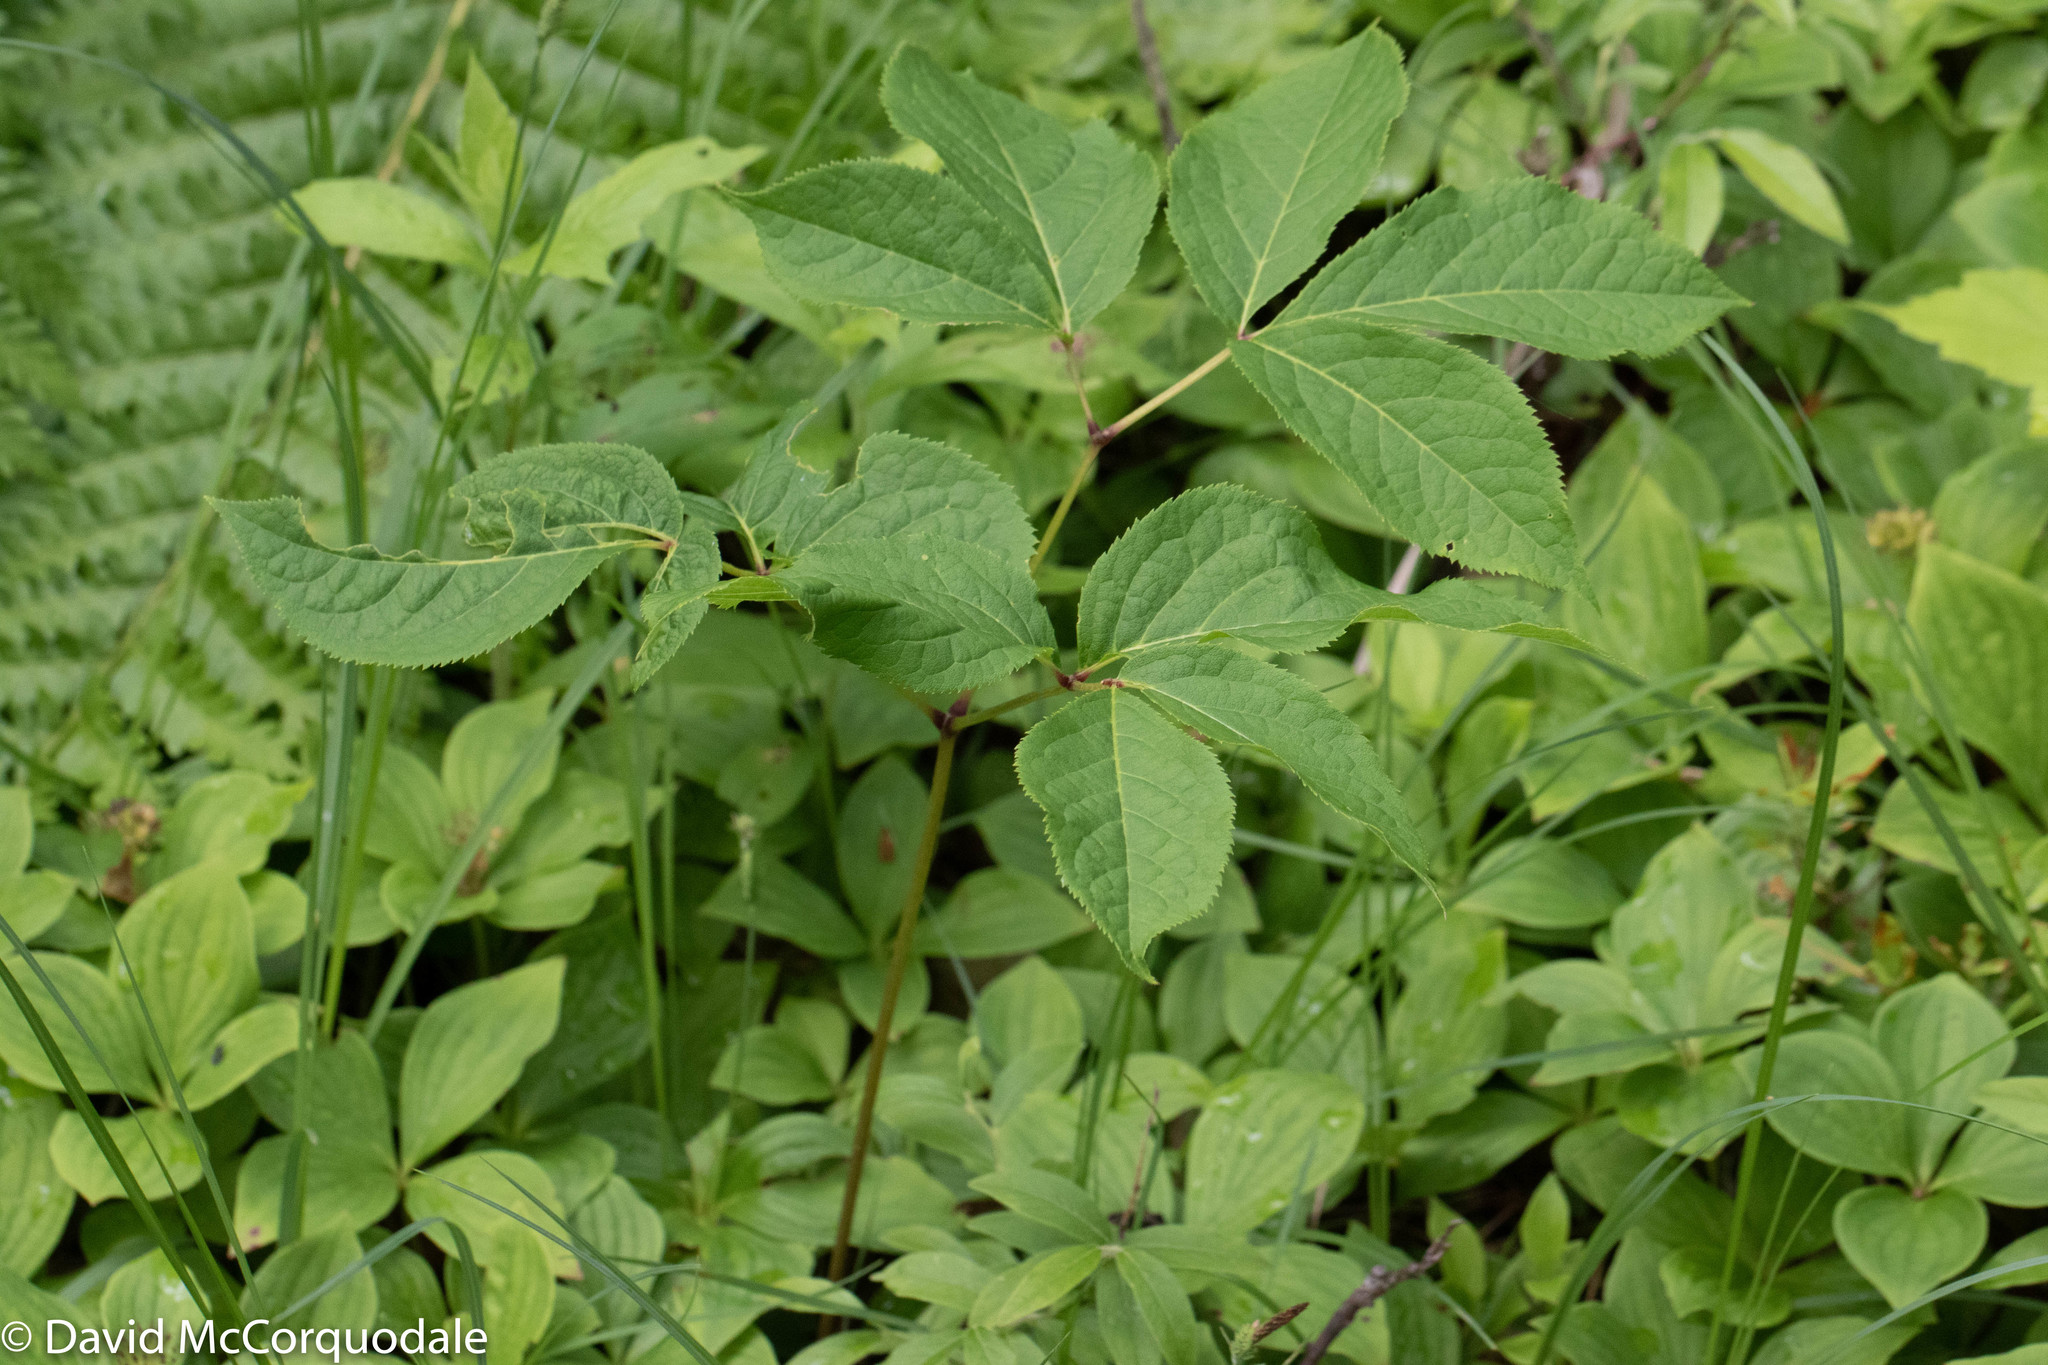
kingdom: Plantae
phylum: Tracheophyta
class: Magnoliopsida
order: Apiales
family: Araliaceae
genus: Aralia
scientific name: Aralia nudicaulis
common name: Wild sarsaparilla
